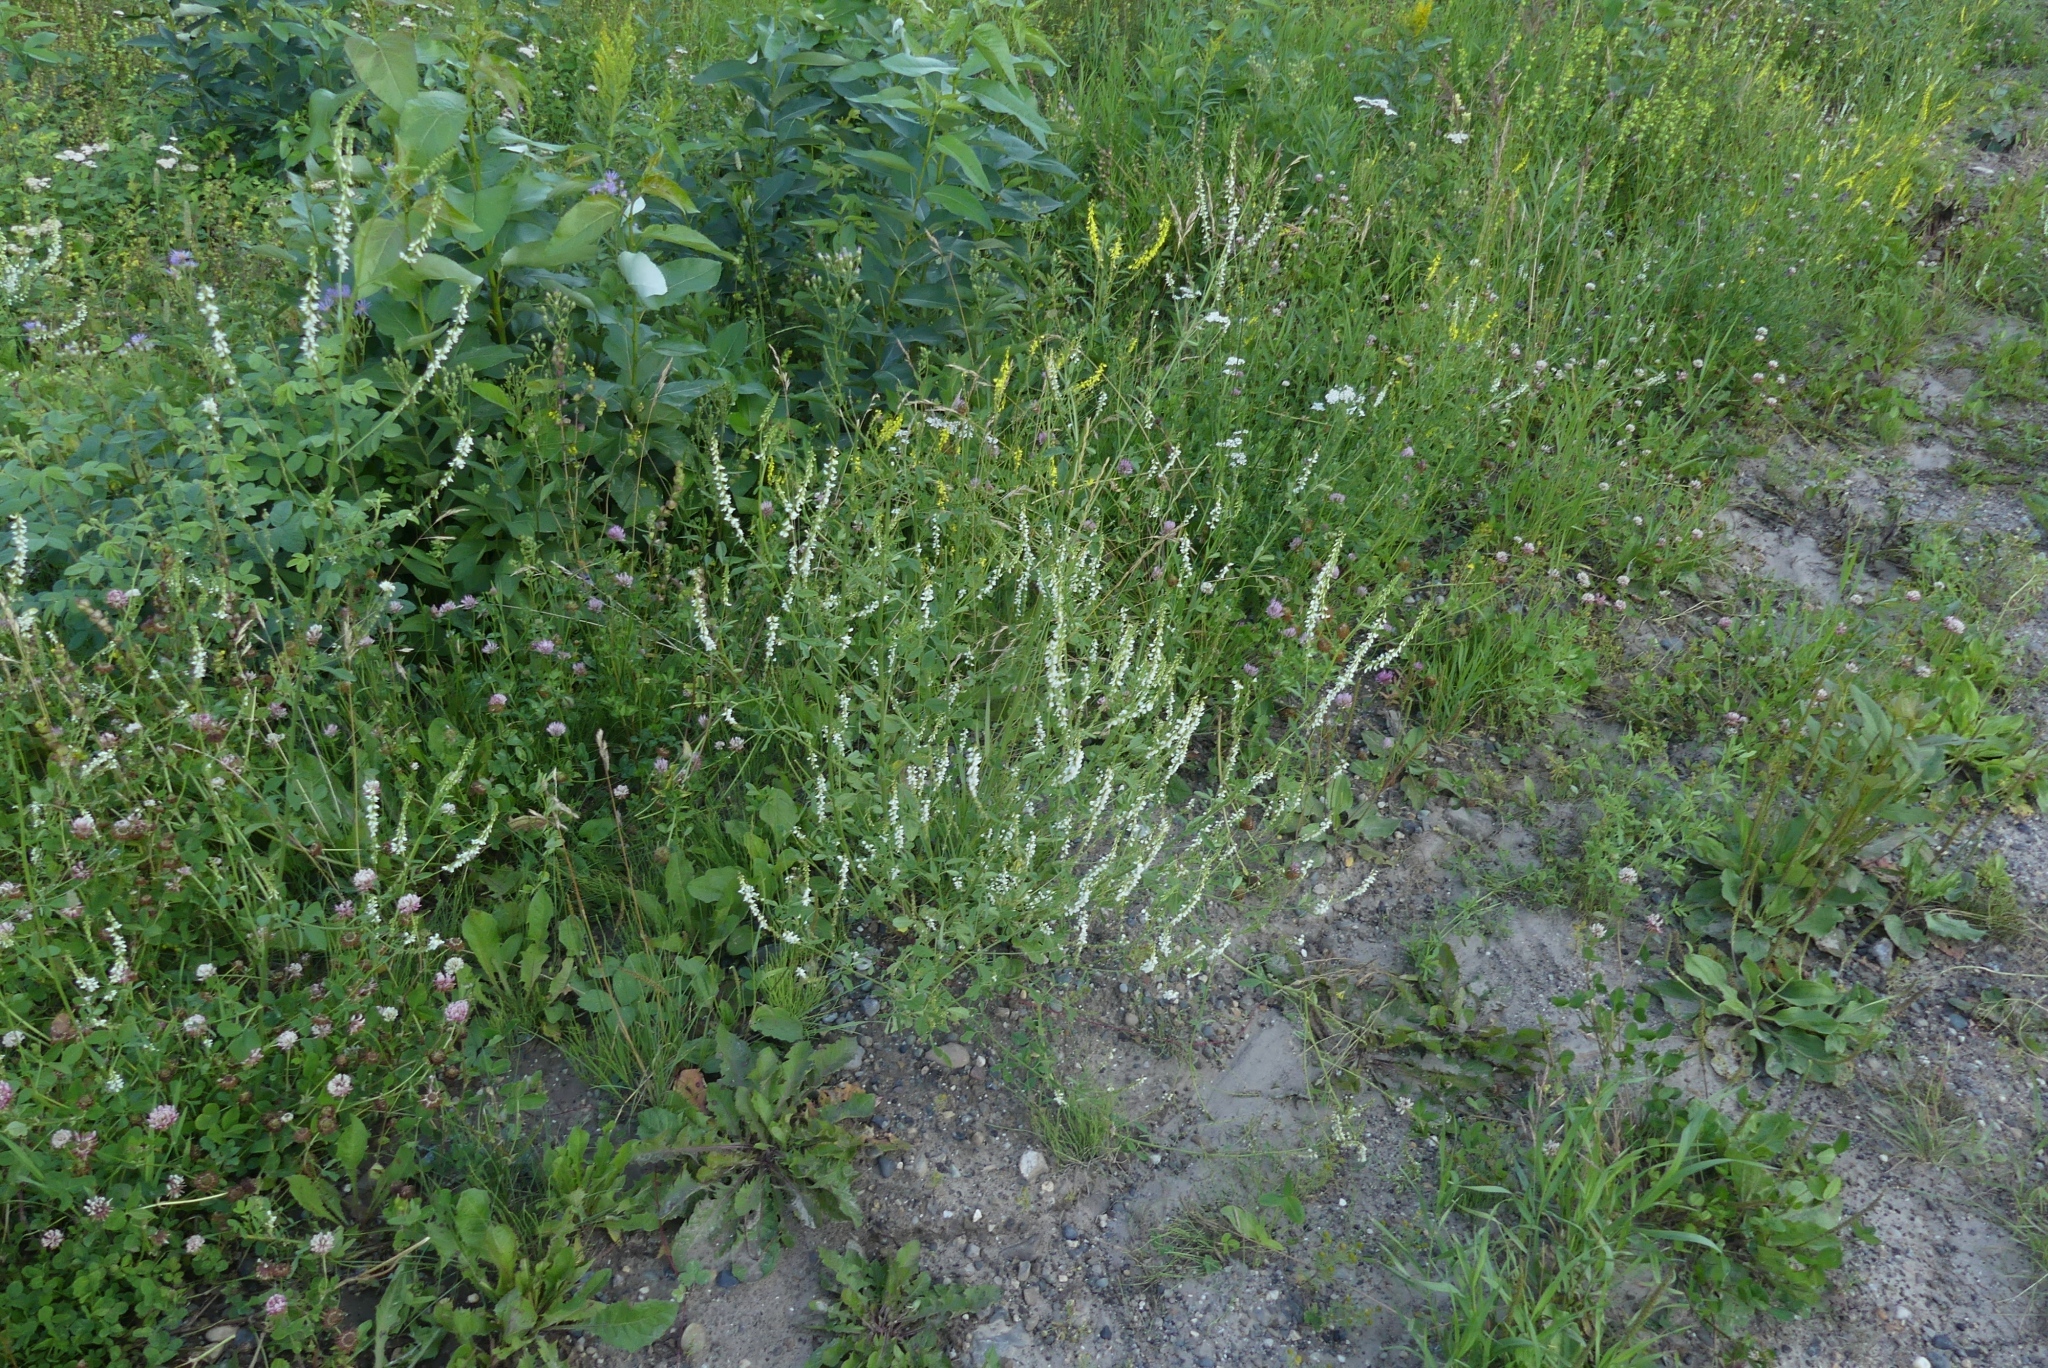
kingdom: Plantae
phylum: Tracheophyta
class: Magnoliopsida
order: Fabales
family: Fabaceae
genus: Melilotus
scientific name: Melilotus albus
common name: White melilot
